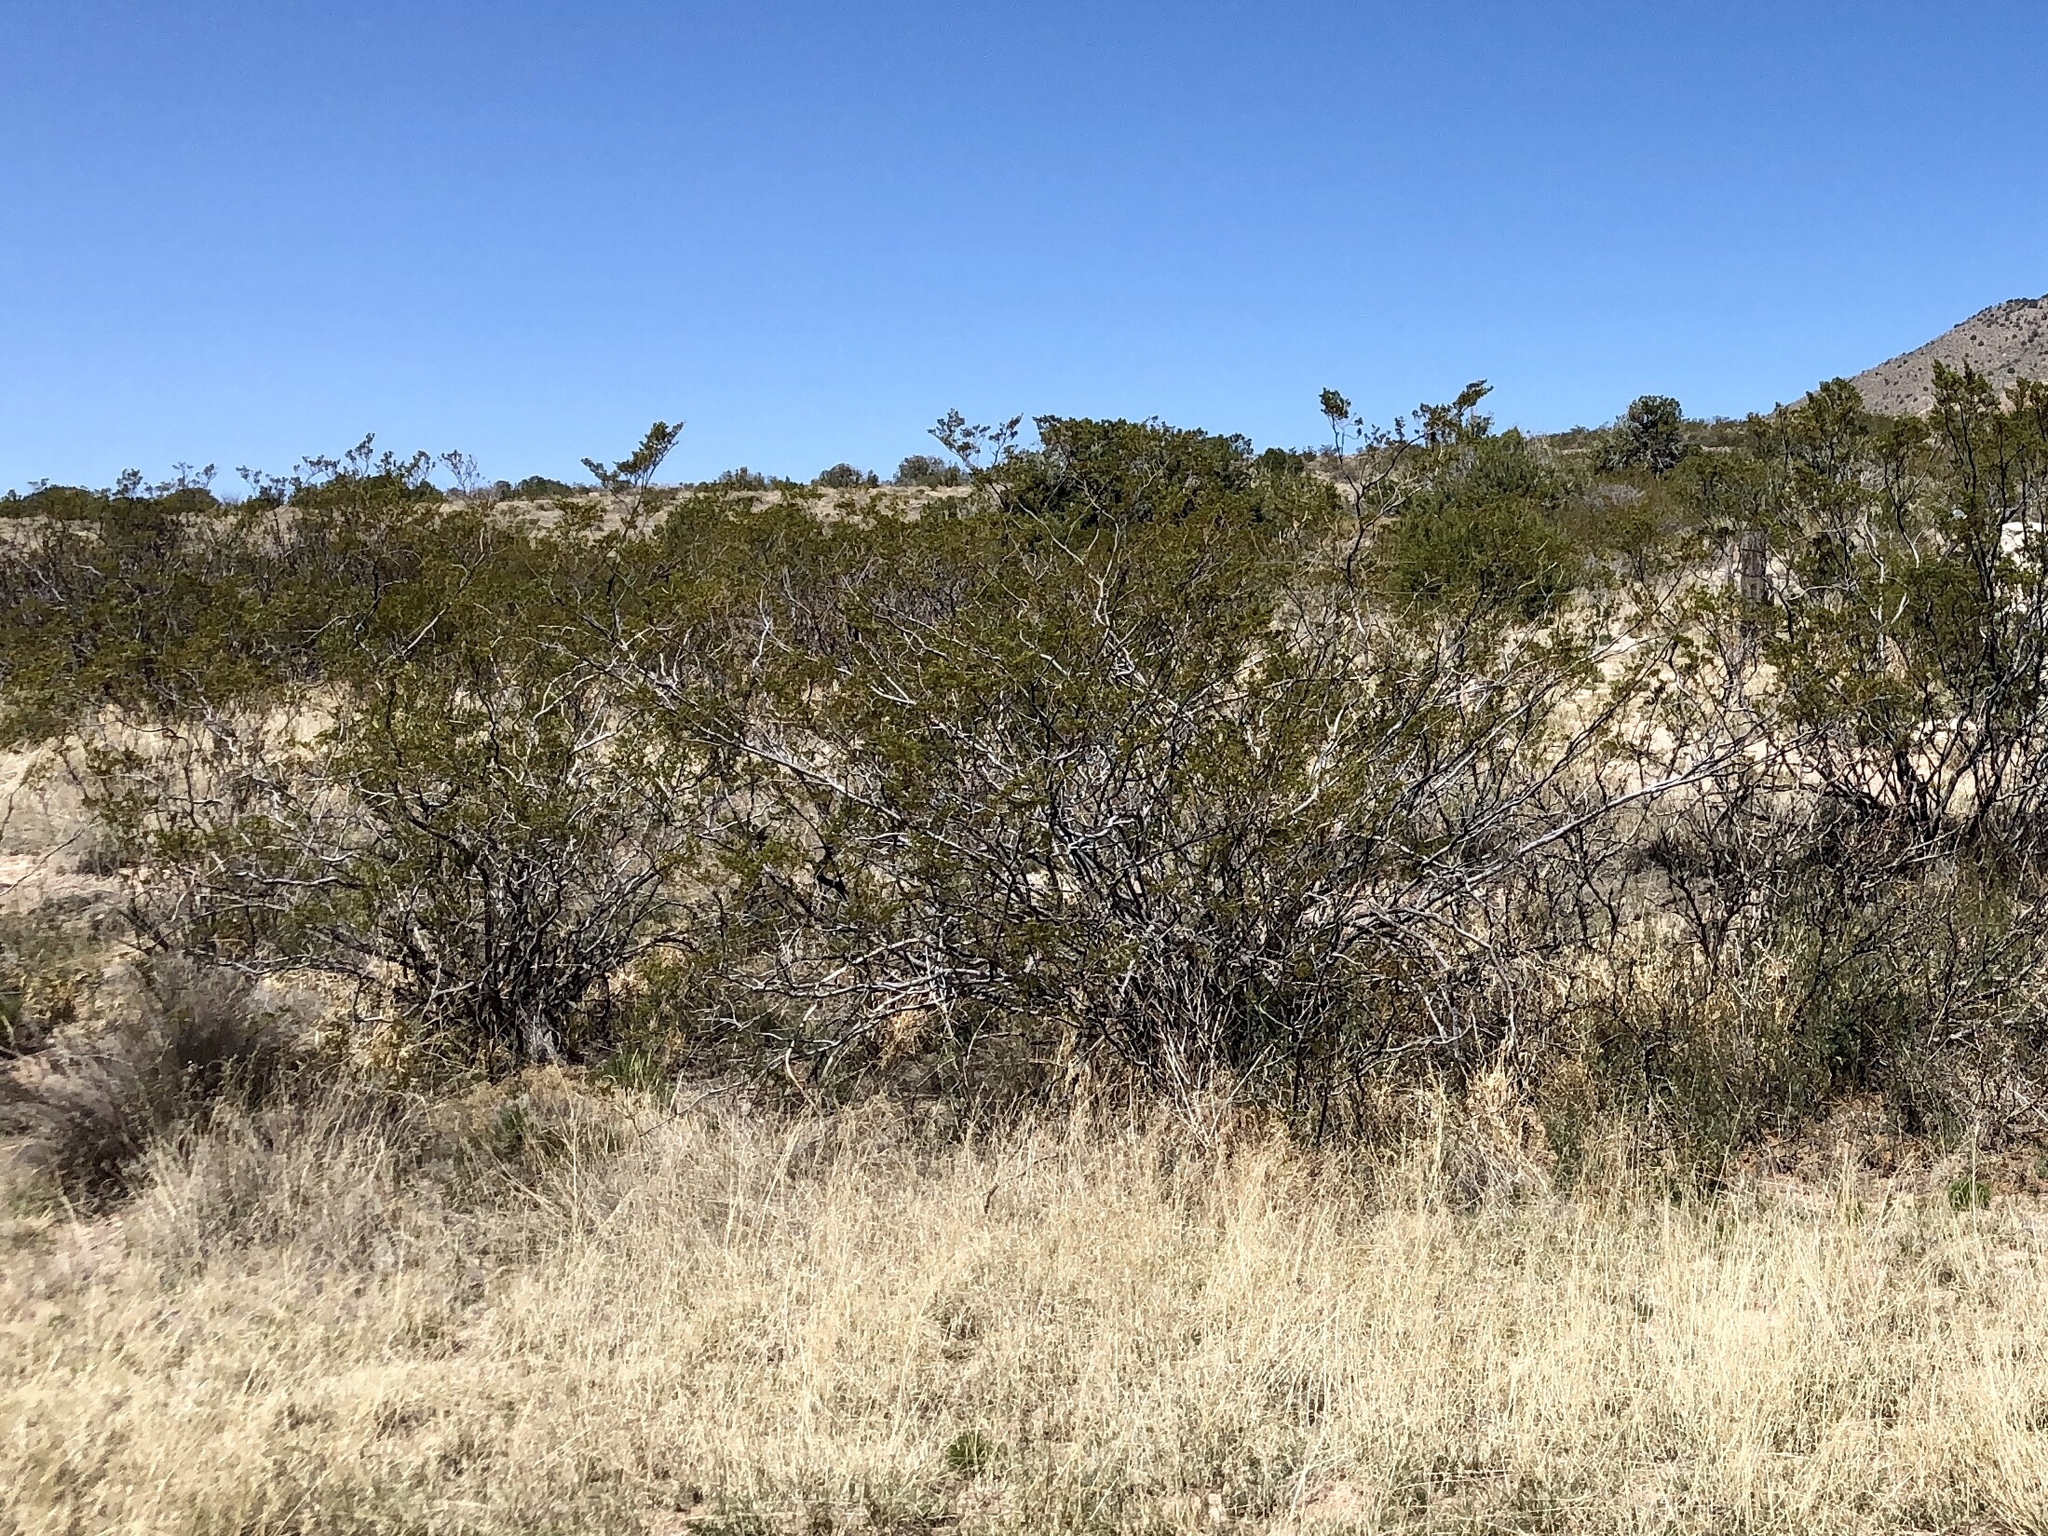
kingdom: Plantae
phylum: Tracheophyta
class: Magnoliopsida
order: Zygophyllales
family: Zygophyllaceae
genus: Larrea
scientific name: Larrea tridentata
